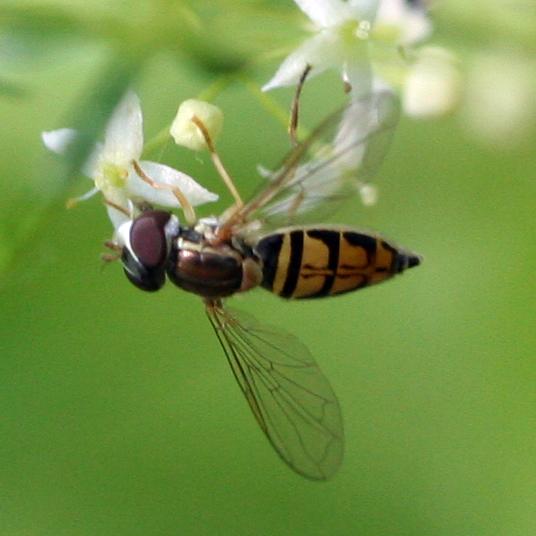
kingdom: Animalia
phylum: Arthropoda
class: Insecta
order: Diptera
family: Syrphidae
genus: Toxomerus
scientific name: Toxomerus marginatus
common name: Syrphid fly
